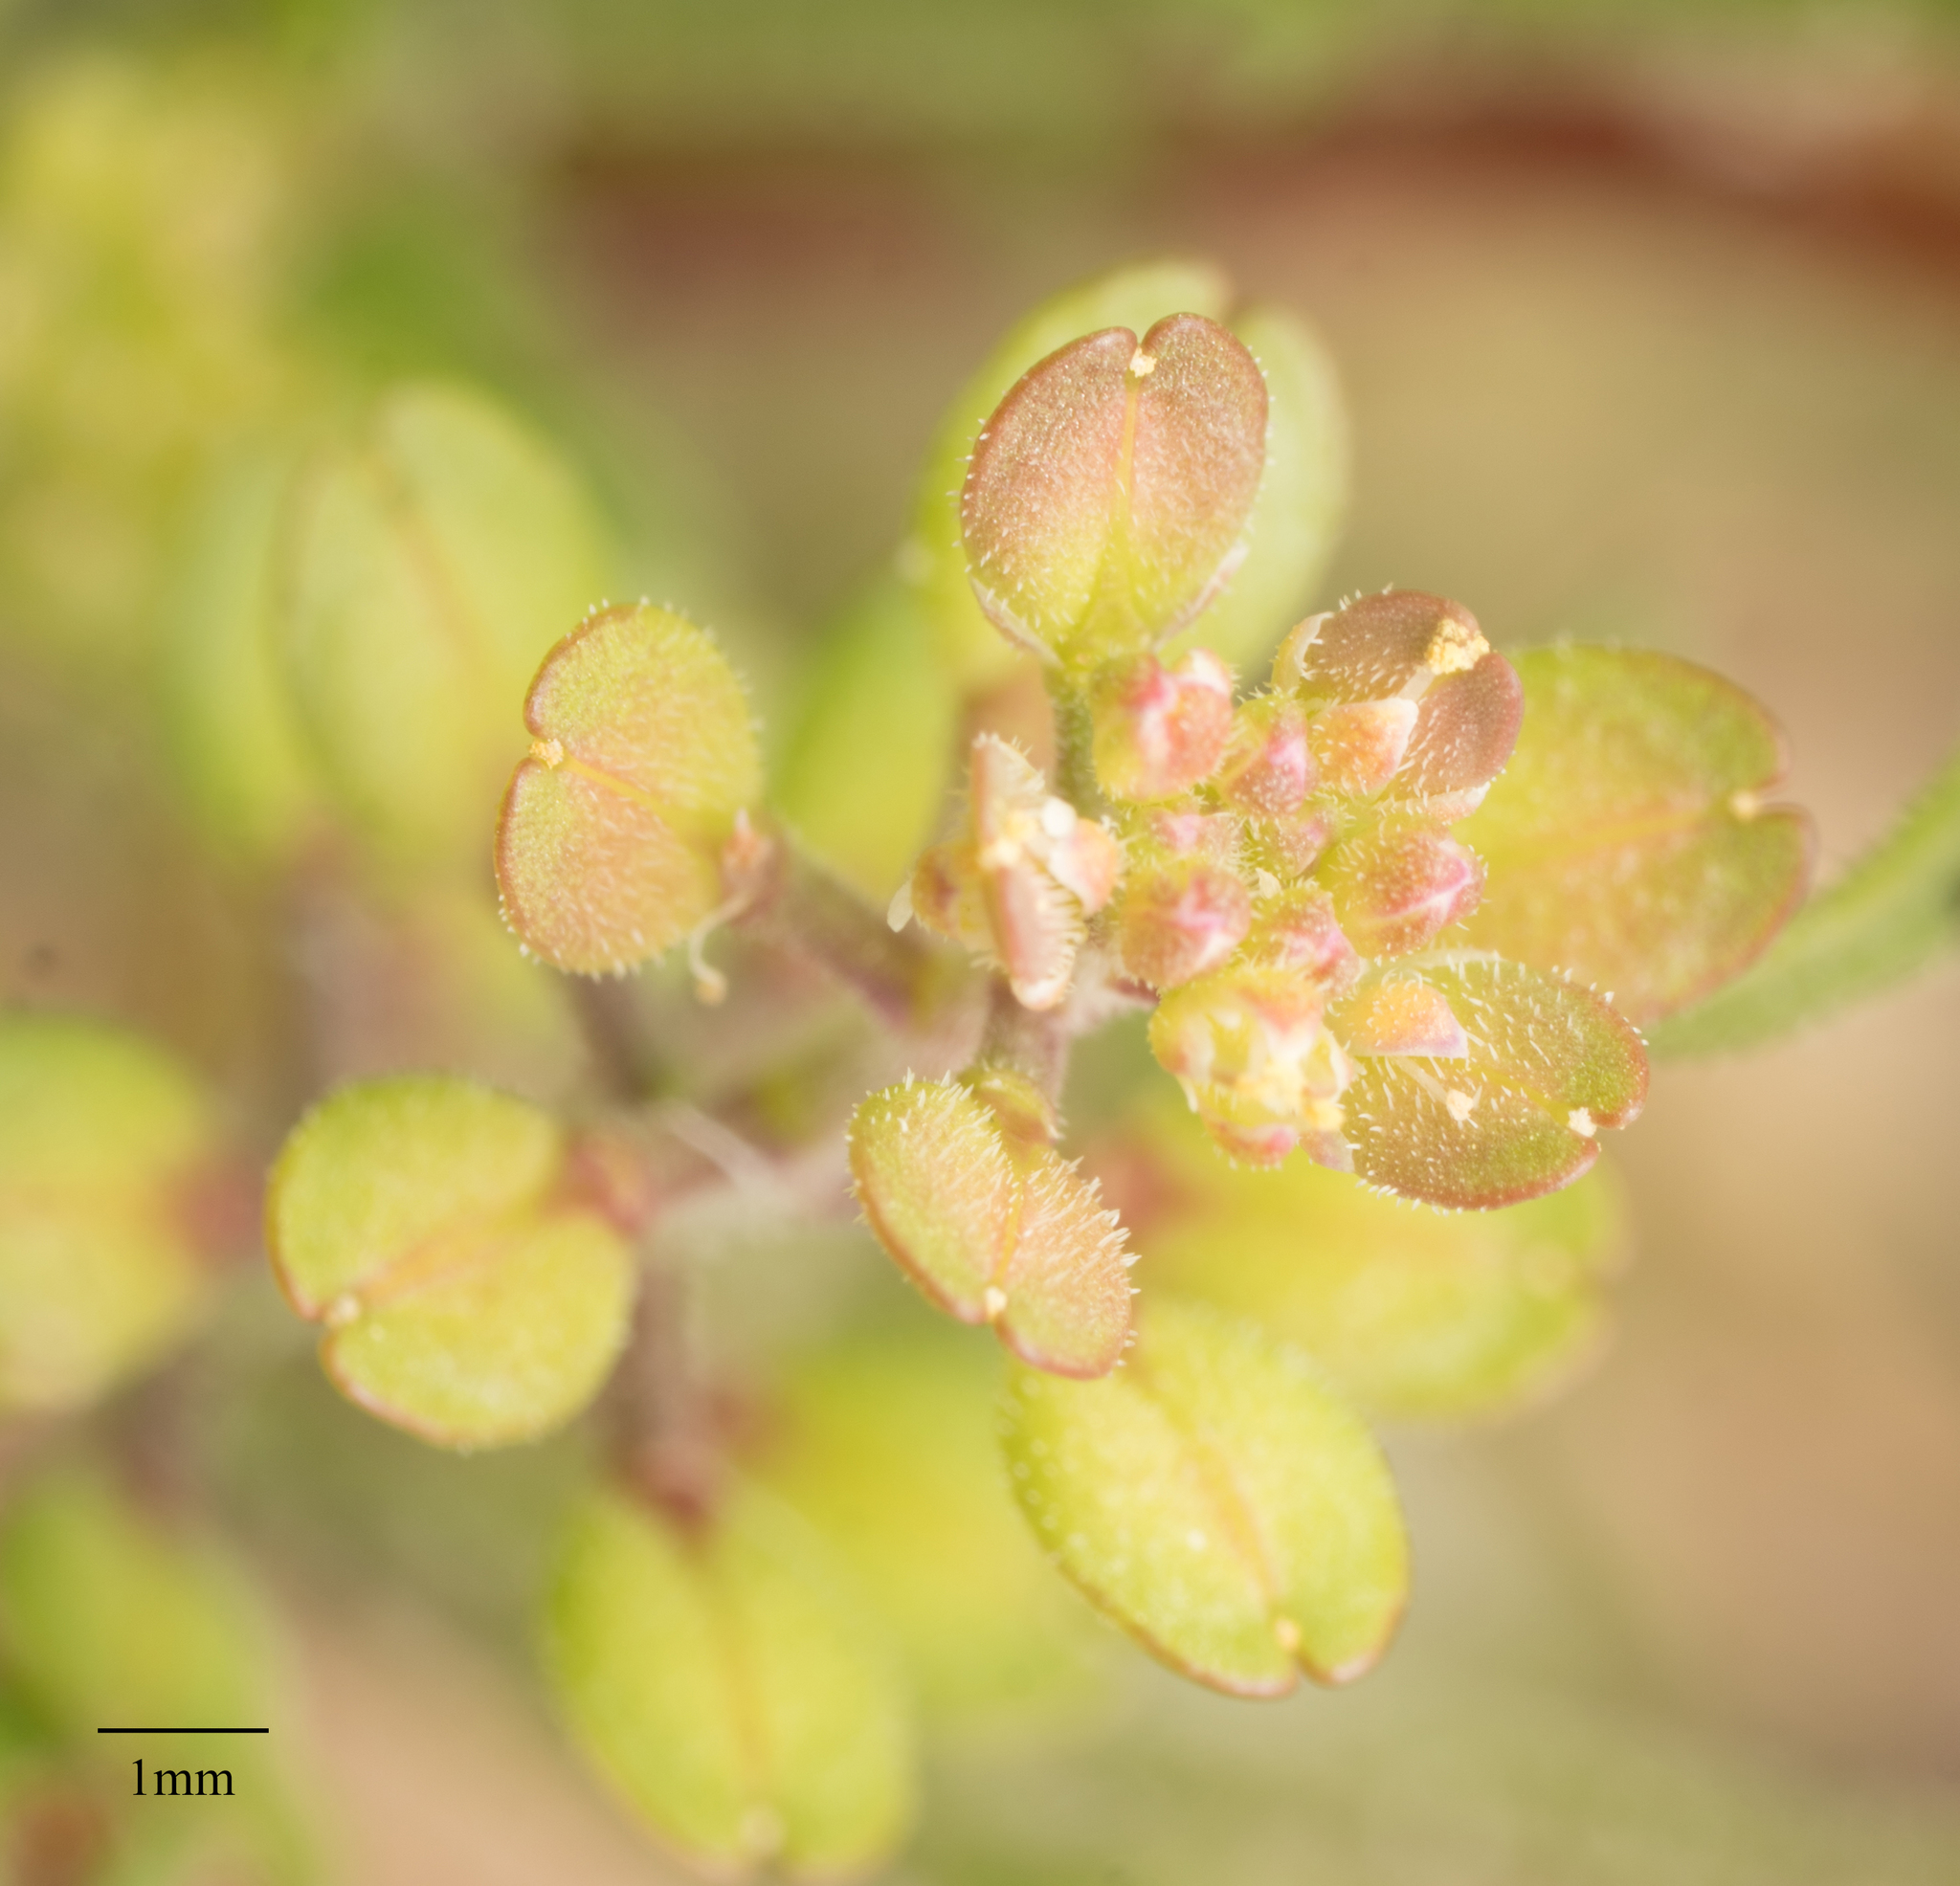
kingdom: Plantae
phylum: Tracheophyta
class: Magnoliopsida
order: Brassicales
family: Brassicaceae
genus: Lepidium
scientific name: Lepidium lasiocarpum
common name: Hairy-pod pepperwort
